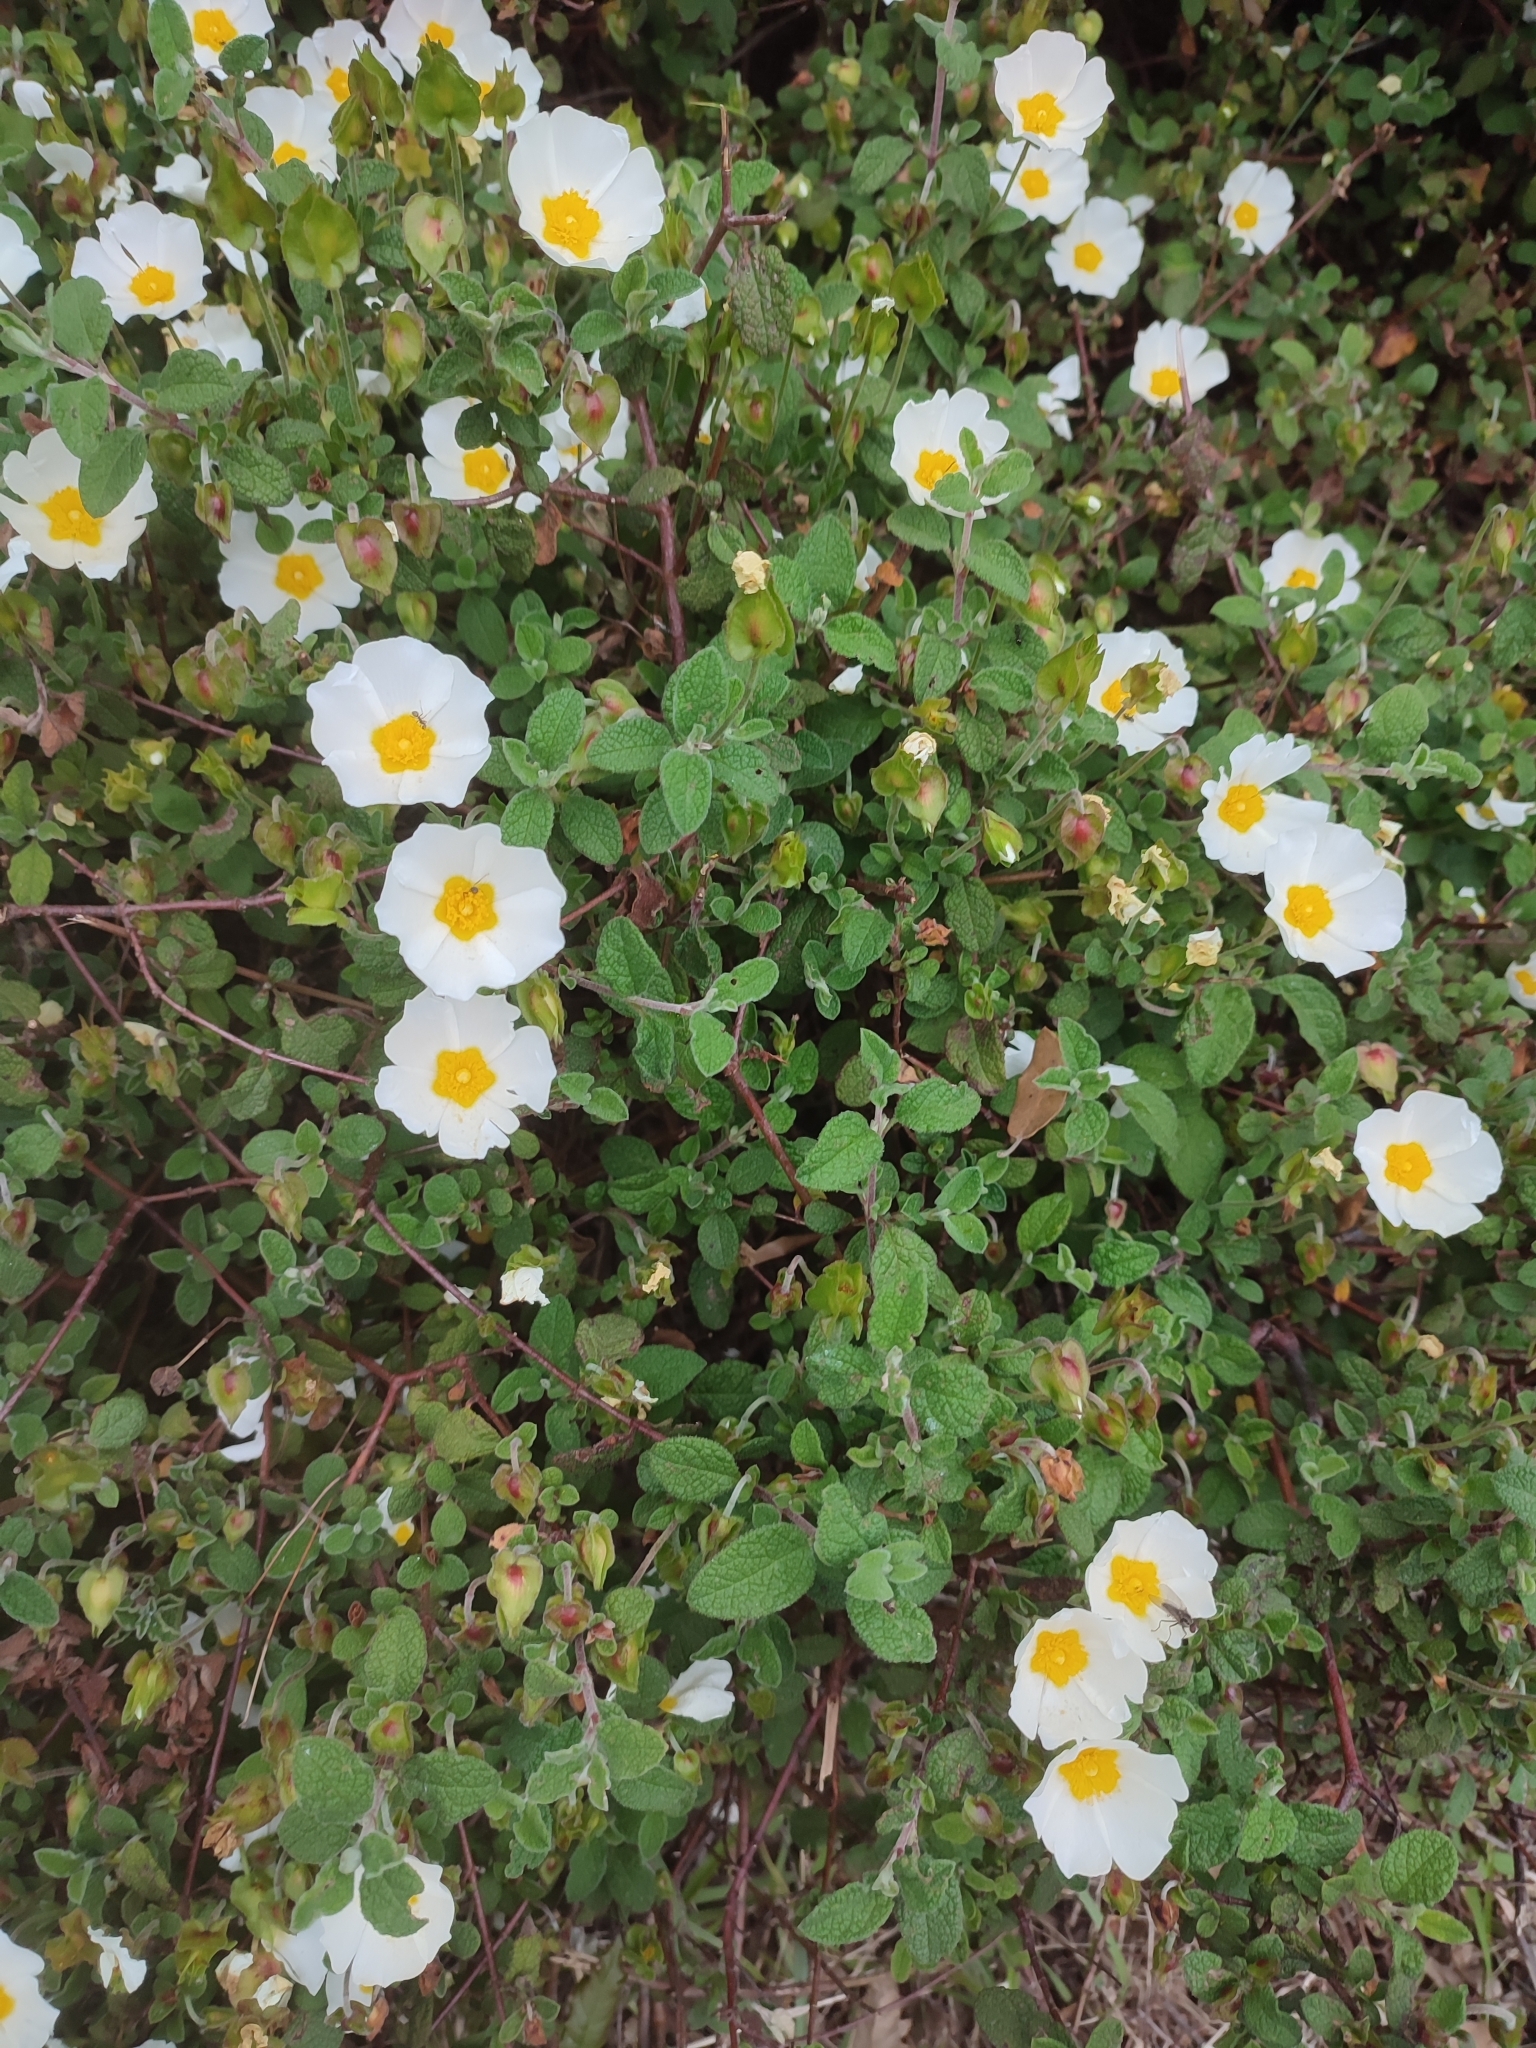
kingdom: Plantae
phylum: Tracheophyta
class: Magnoliopsida
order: Malvales
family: Cistaceae
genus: Cistus
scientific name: Cistus salviifolius
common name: Salvia cistus
